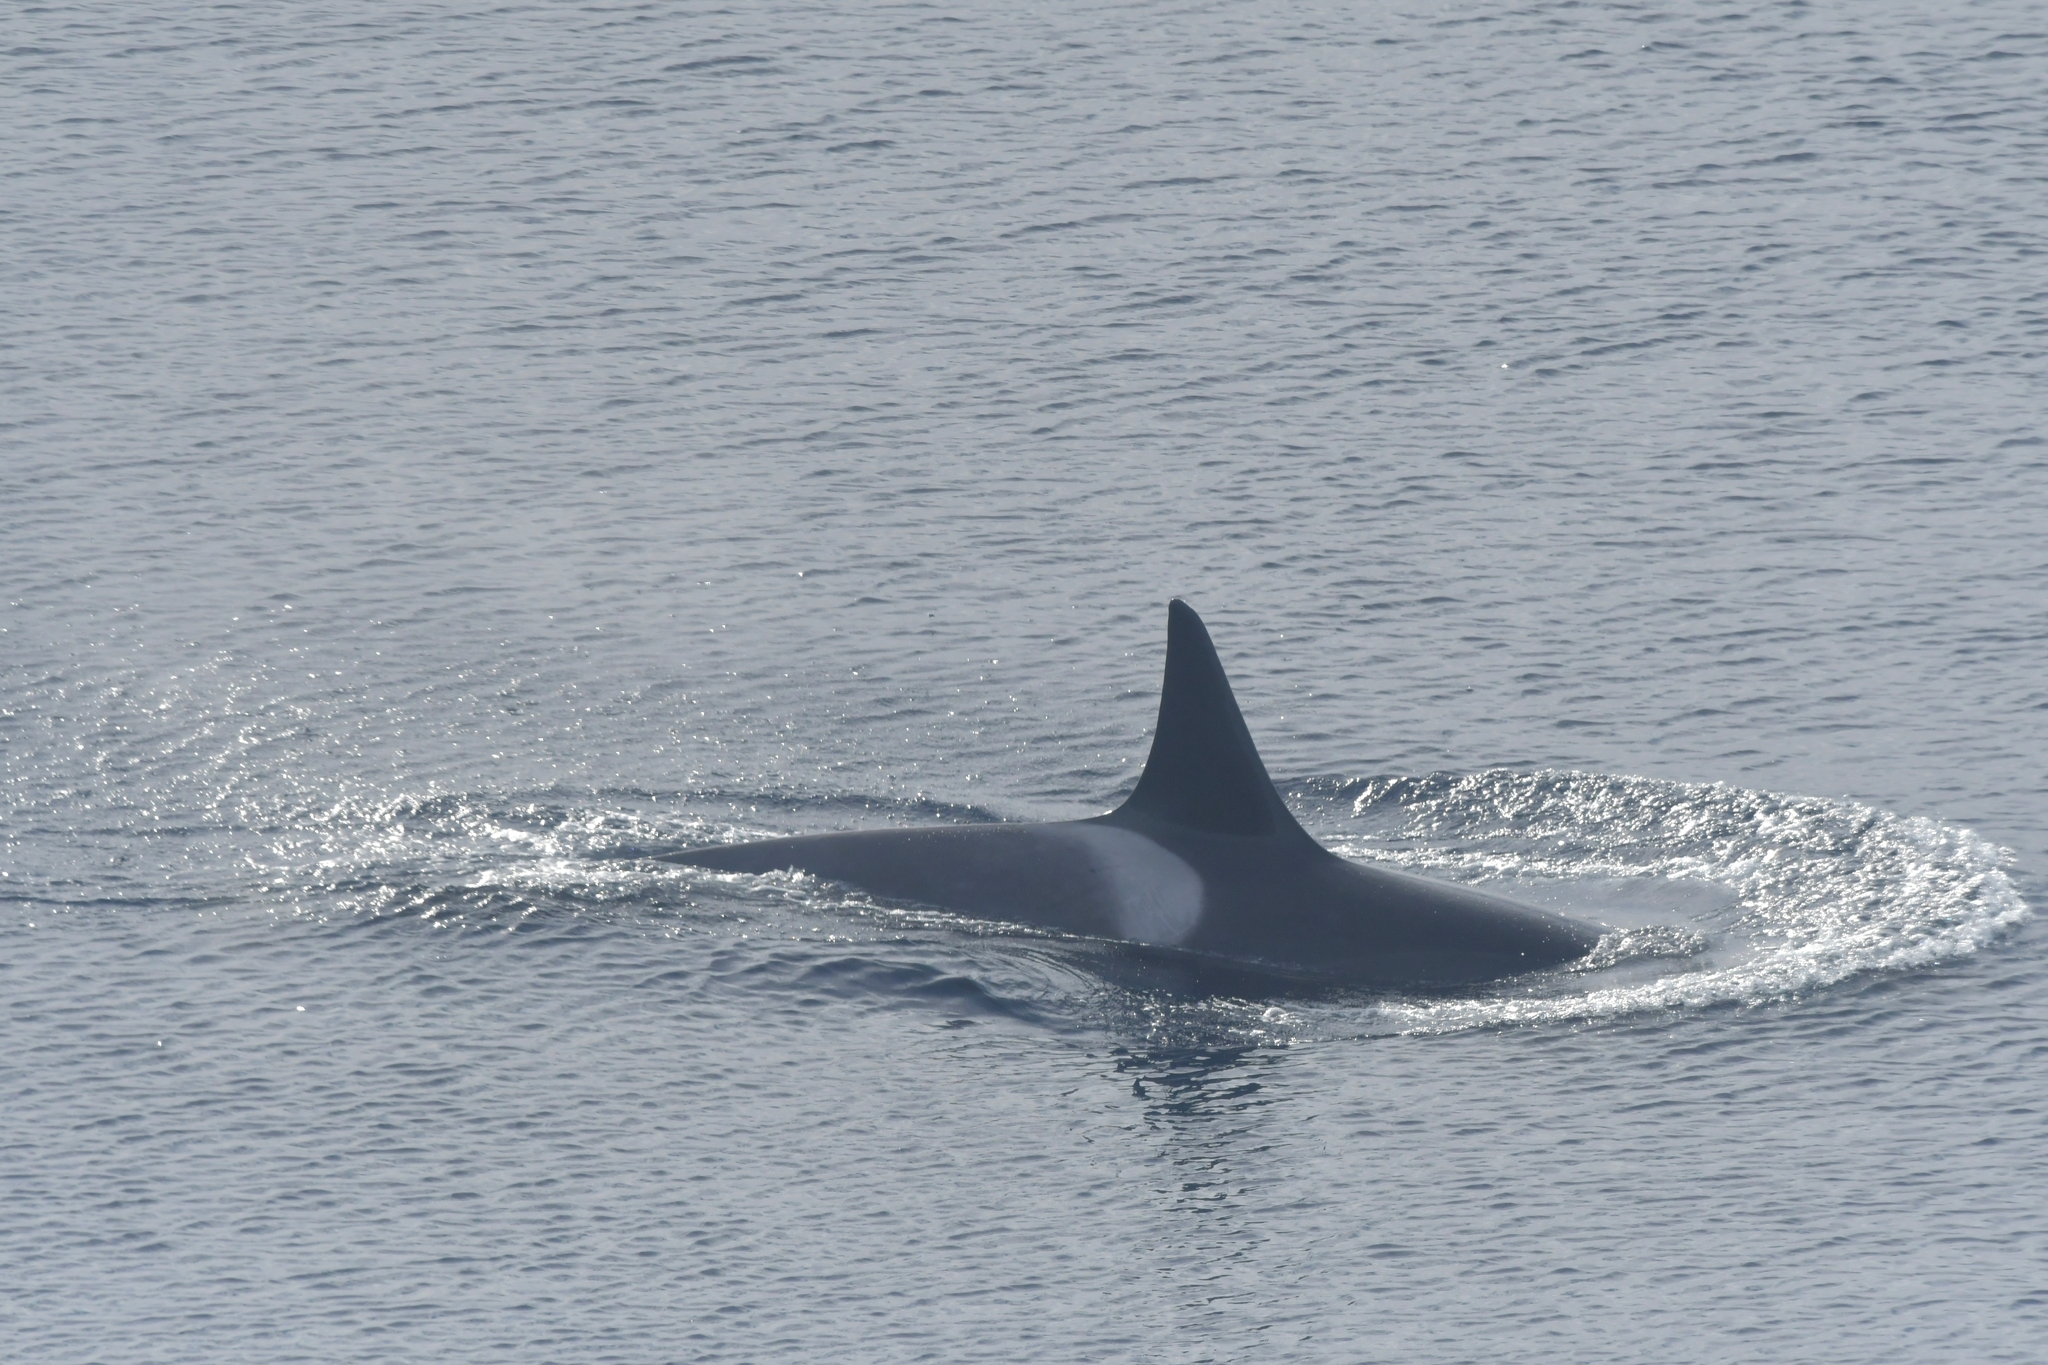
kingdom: Animalia
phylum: Chordata
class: Mammalia
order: Cetacea
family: Delphinidae
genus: Orcinus
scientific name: Orcinus orca
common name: Killer whale
